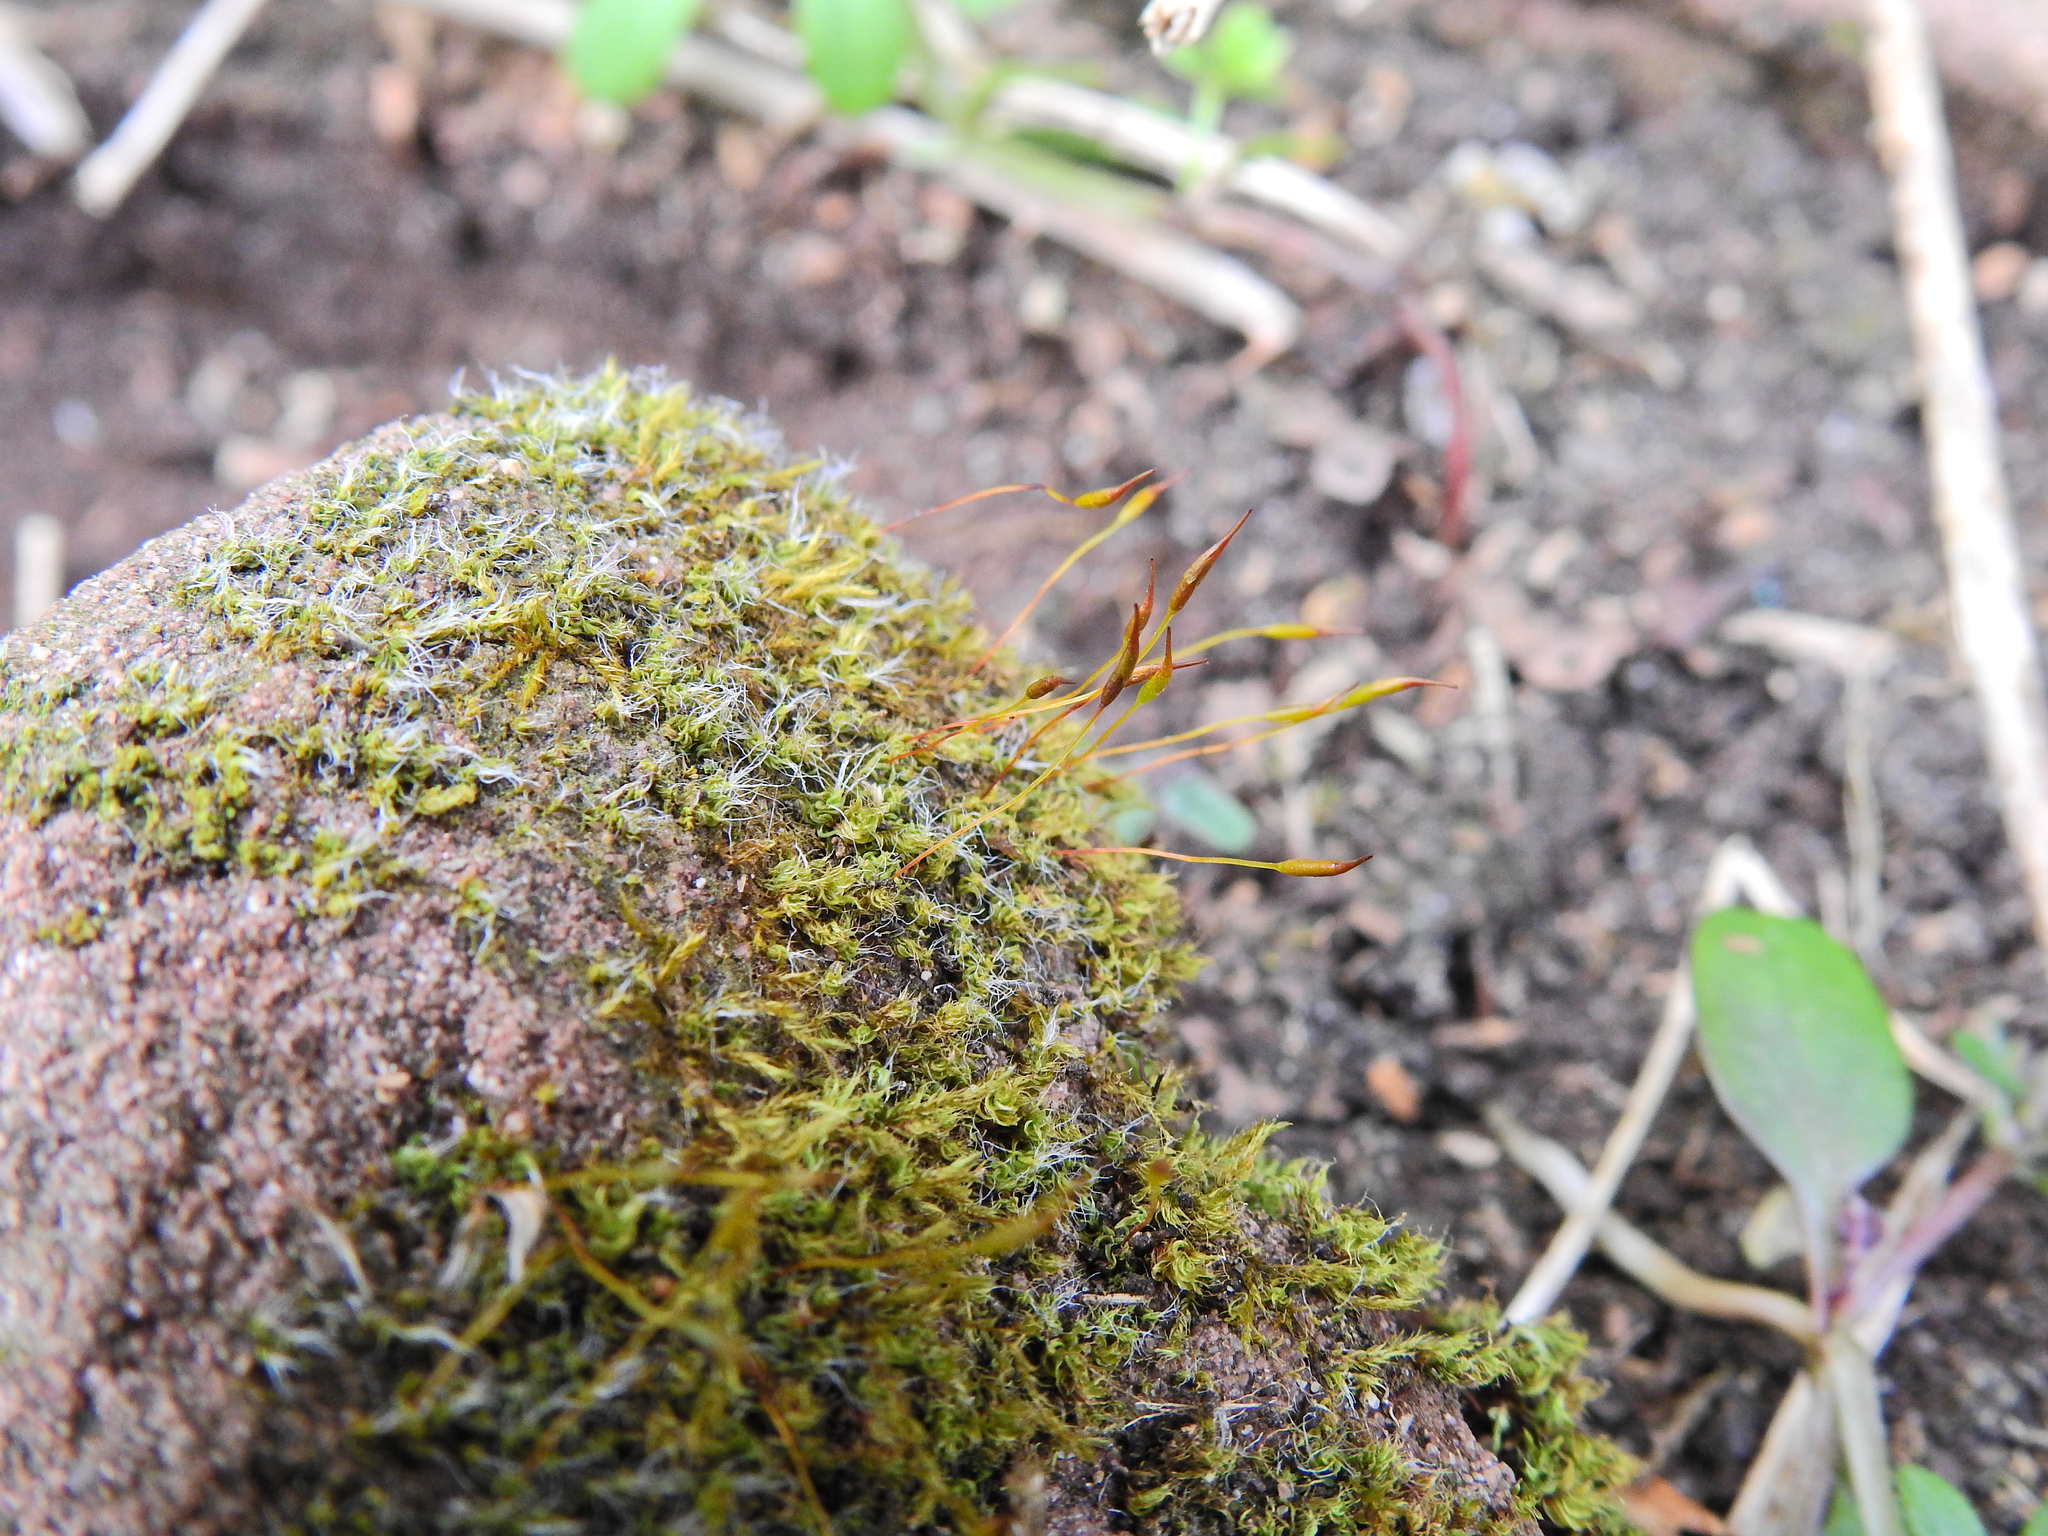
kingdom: Plantae
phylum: Bryophyta
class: Bryopsida
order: Pottiales
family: Pottiaceae
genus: Tortula
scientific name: Tortula muralis
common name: Wall screw-moss
